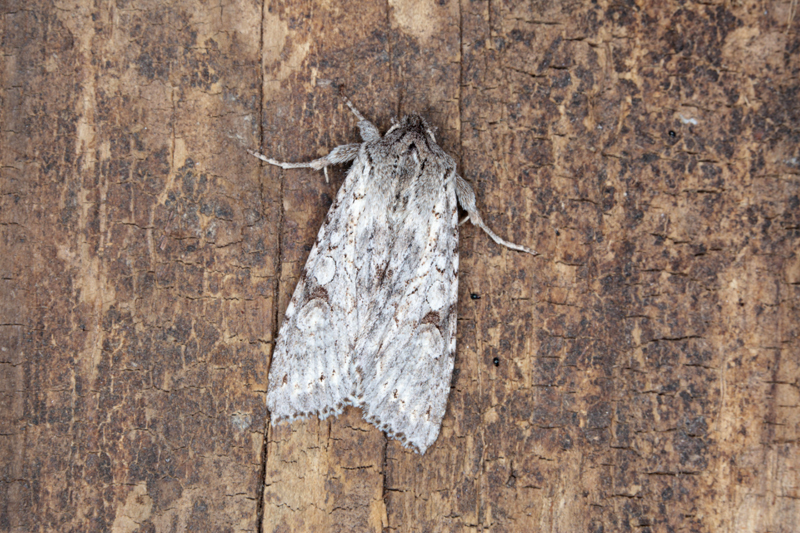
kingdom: Animalia
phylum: Arthropoda
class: Insecta
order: Lepidoptera
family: Noctuidae
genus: Ichneutica
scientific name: Ichneutica thalassarche
